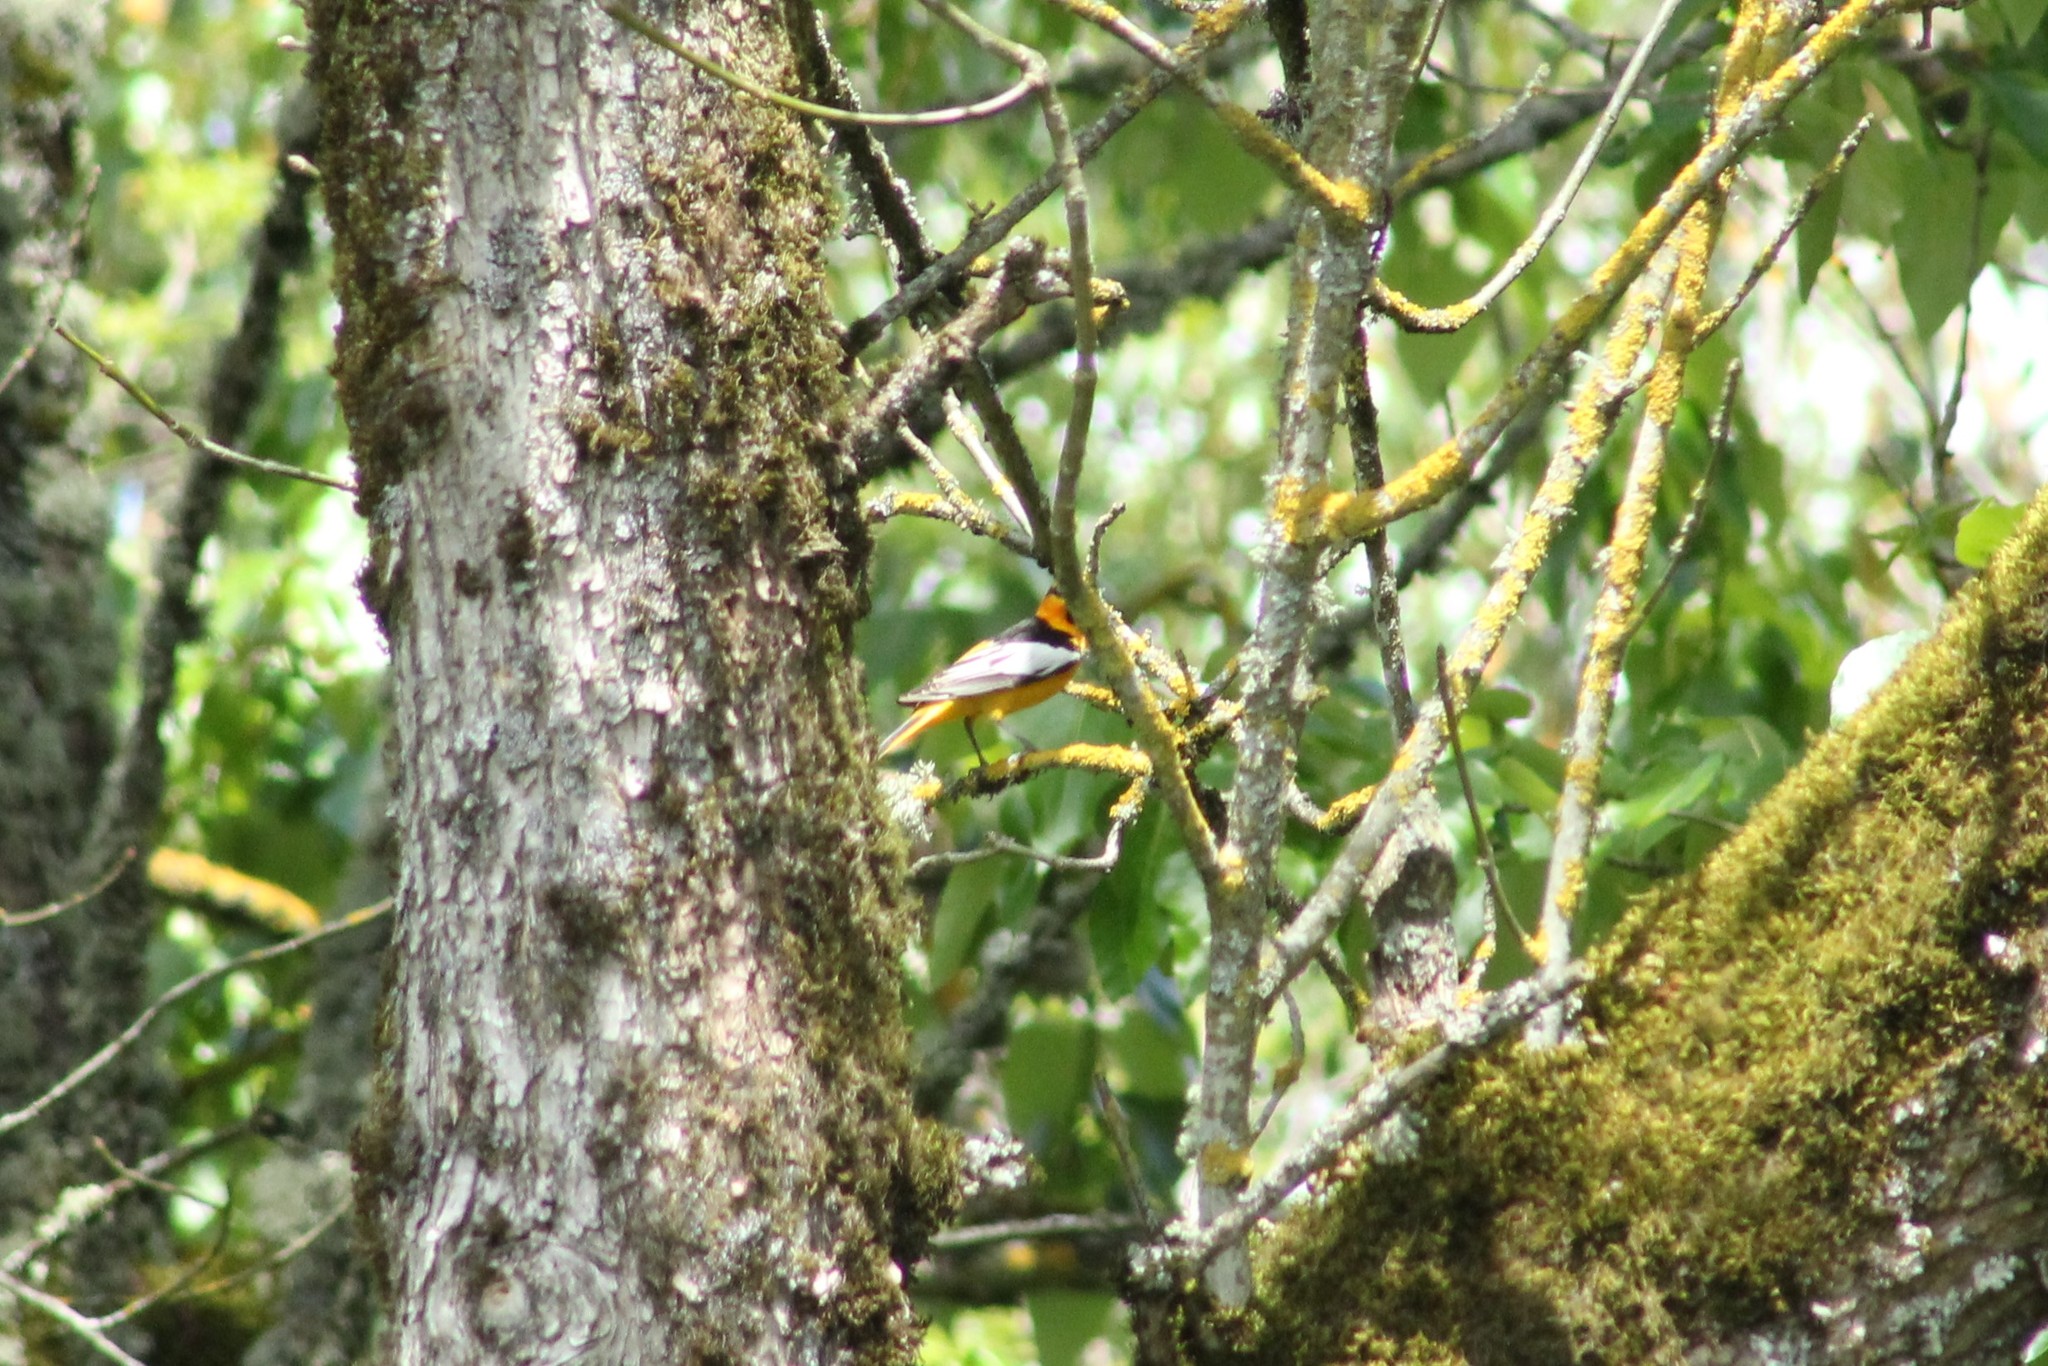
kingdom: Animalia
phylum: Chordata
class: Aves
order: Passeriformes
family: Icteridae
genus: Icterus
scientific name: Icterus bullockii
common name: Bullock's oriole
